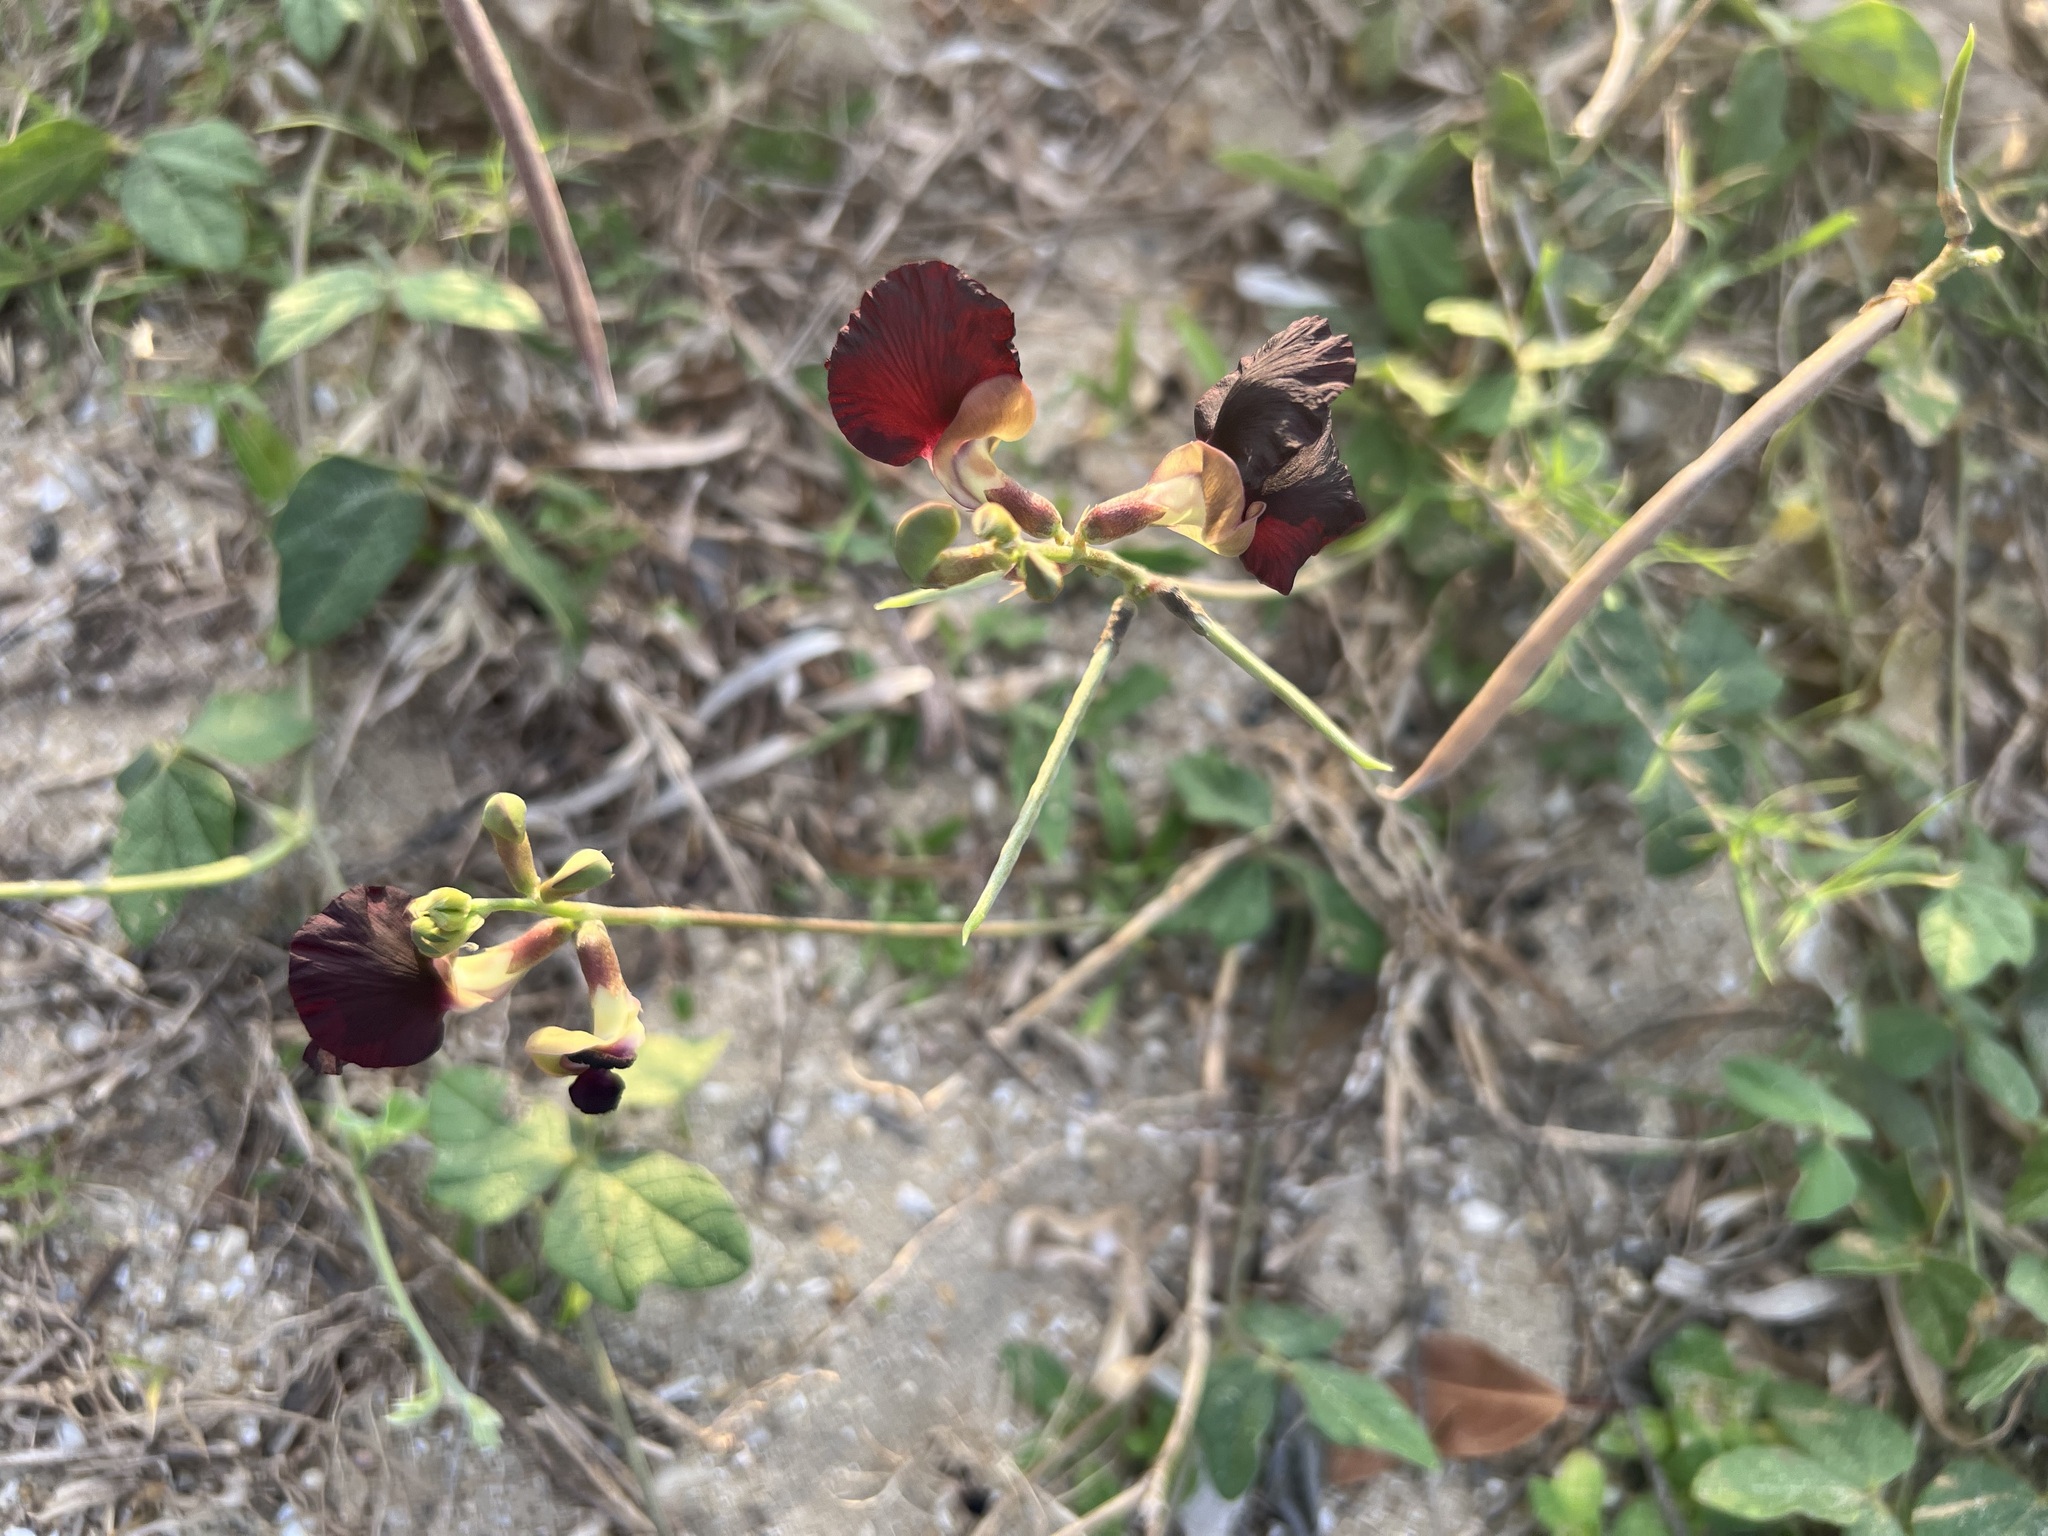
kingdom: Plantae
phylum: Tracheophyta
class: Magnoliopsida
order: Fabales
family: Fabaceae
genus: Macroptilium
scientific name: Macroptilium atropurpureum
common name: Purple bushbean
